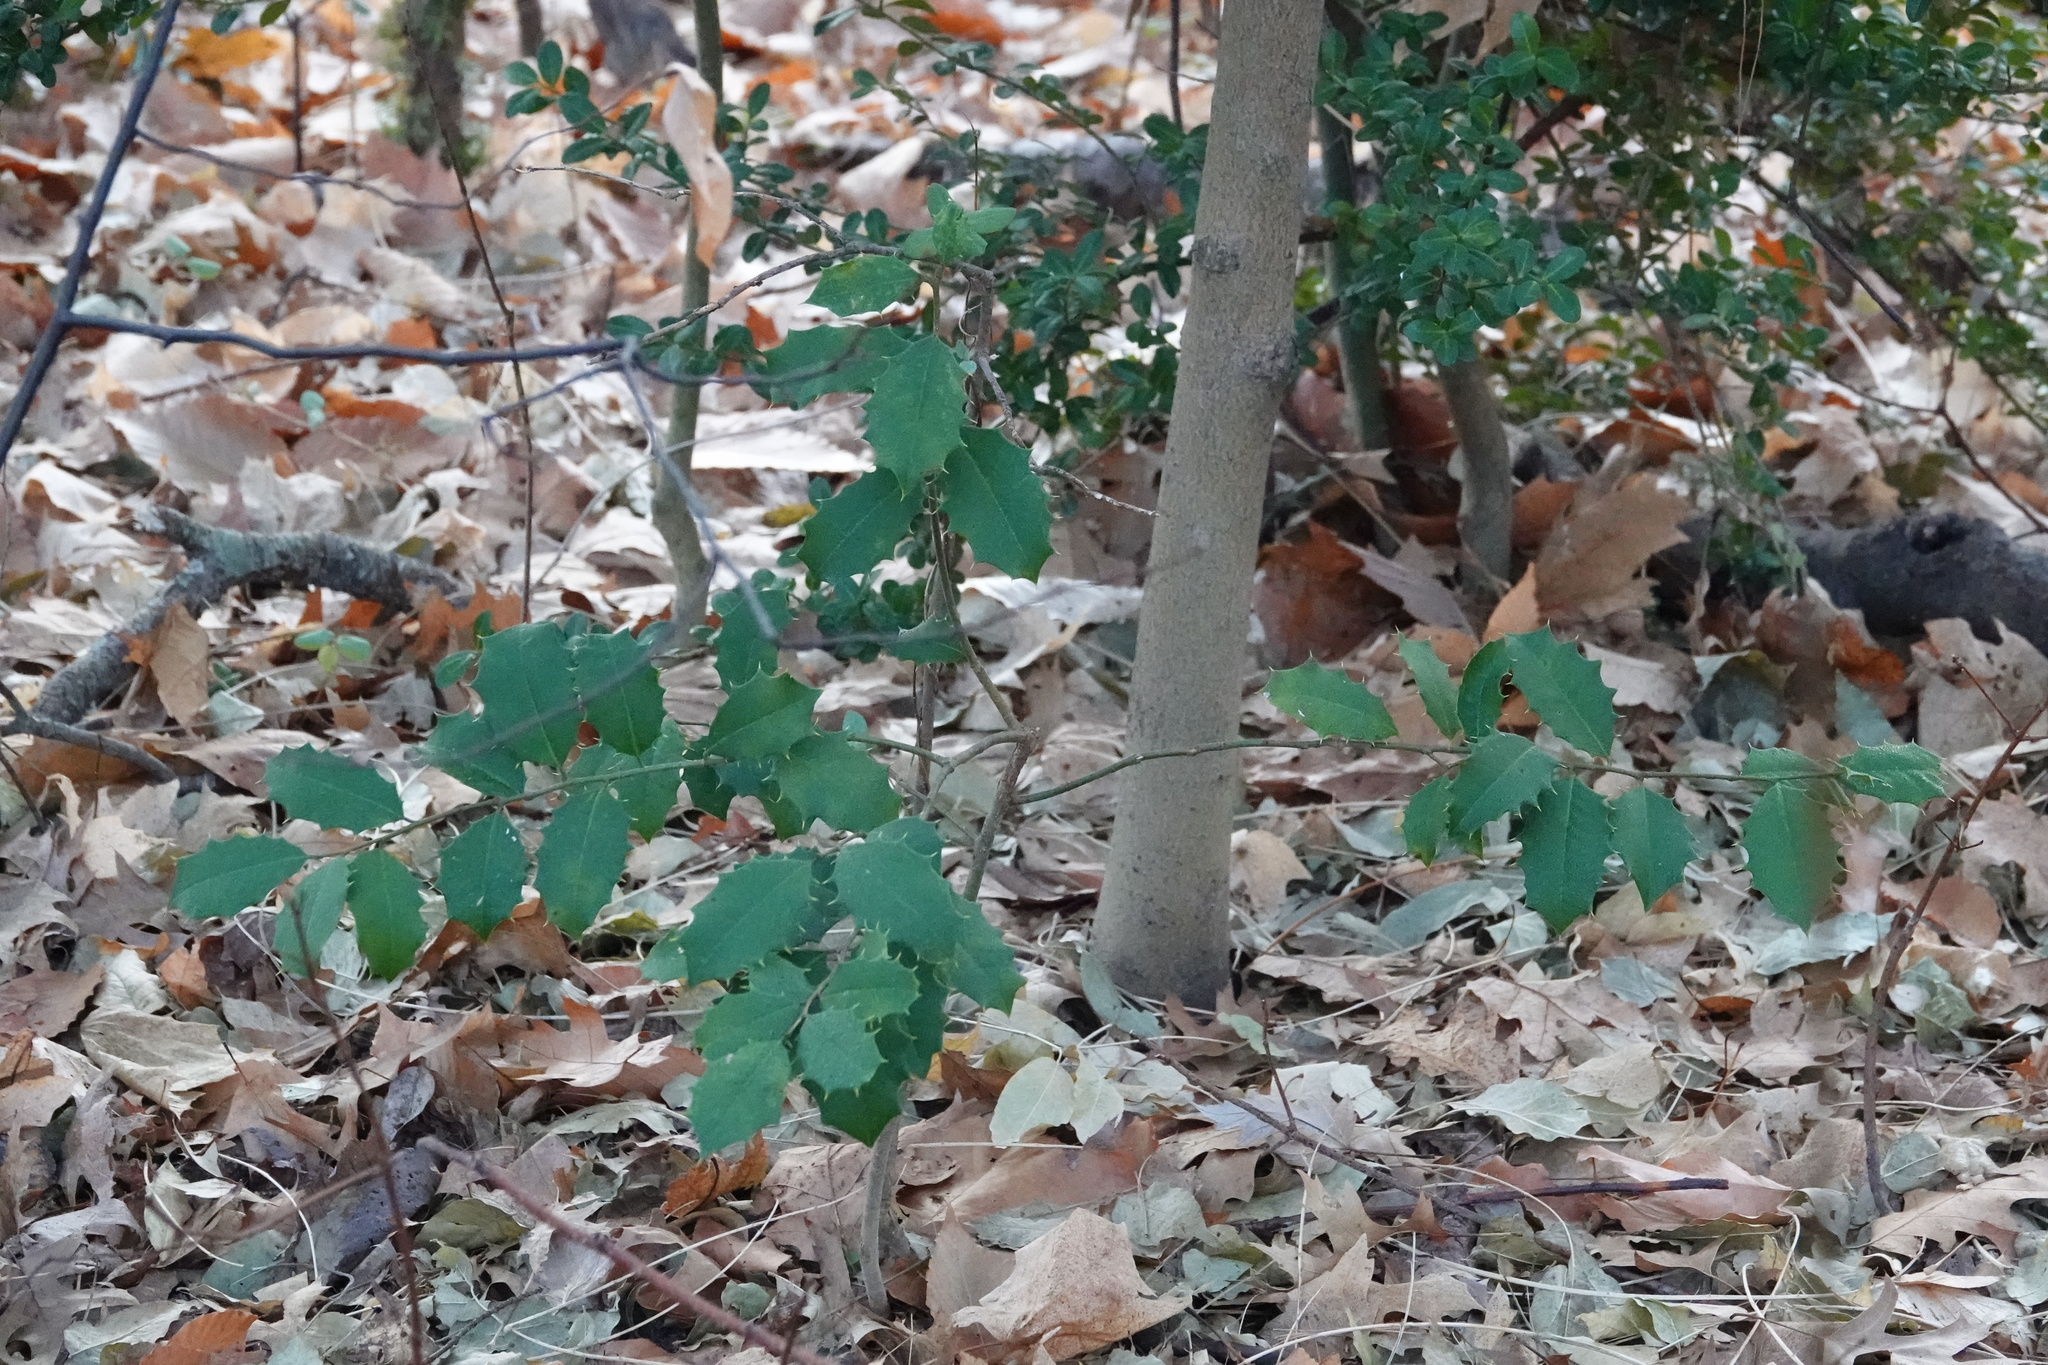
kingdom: Plantae
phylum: Tracheophyta
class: Magnoliopsida
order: Aquifoliales
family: Aquifoliaceae
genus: Ilex
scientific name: Ilex opaca
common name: American holly
